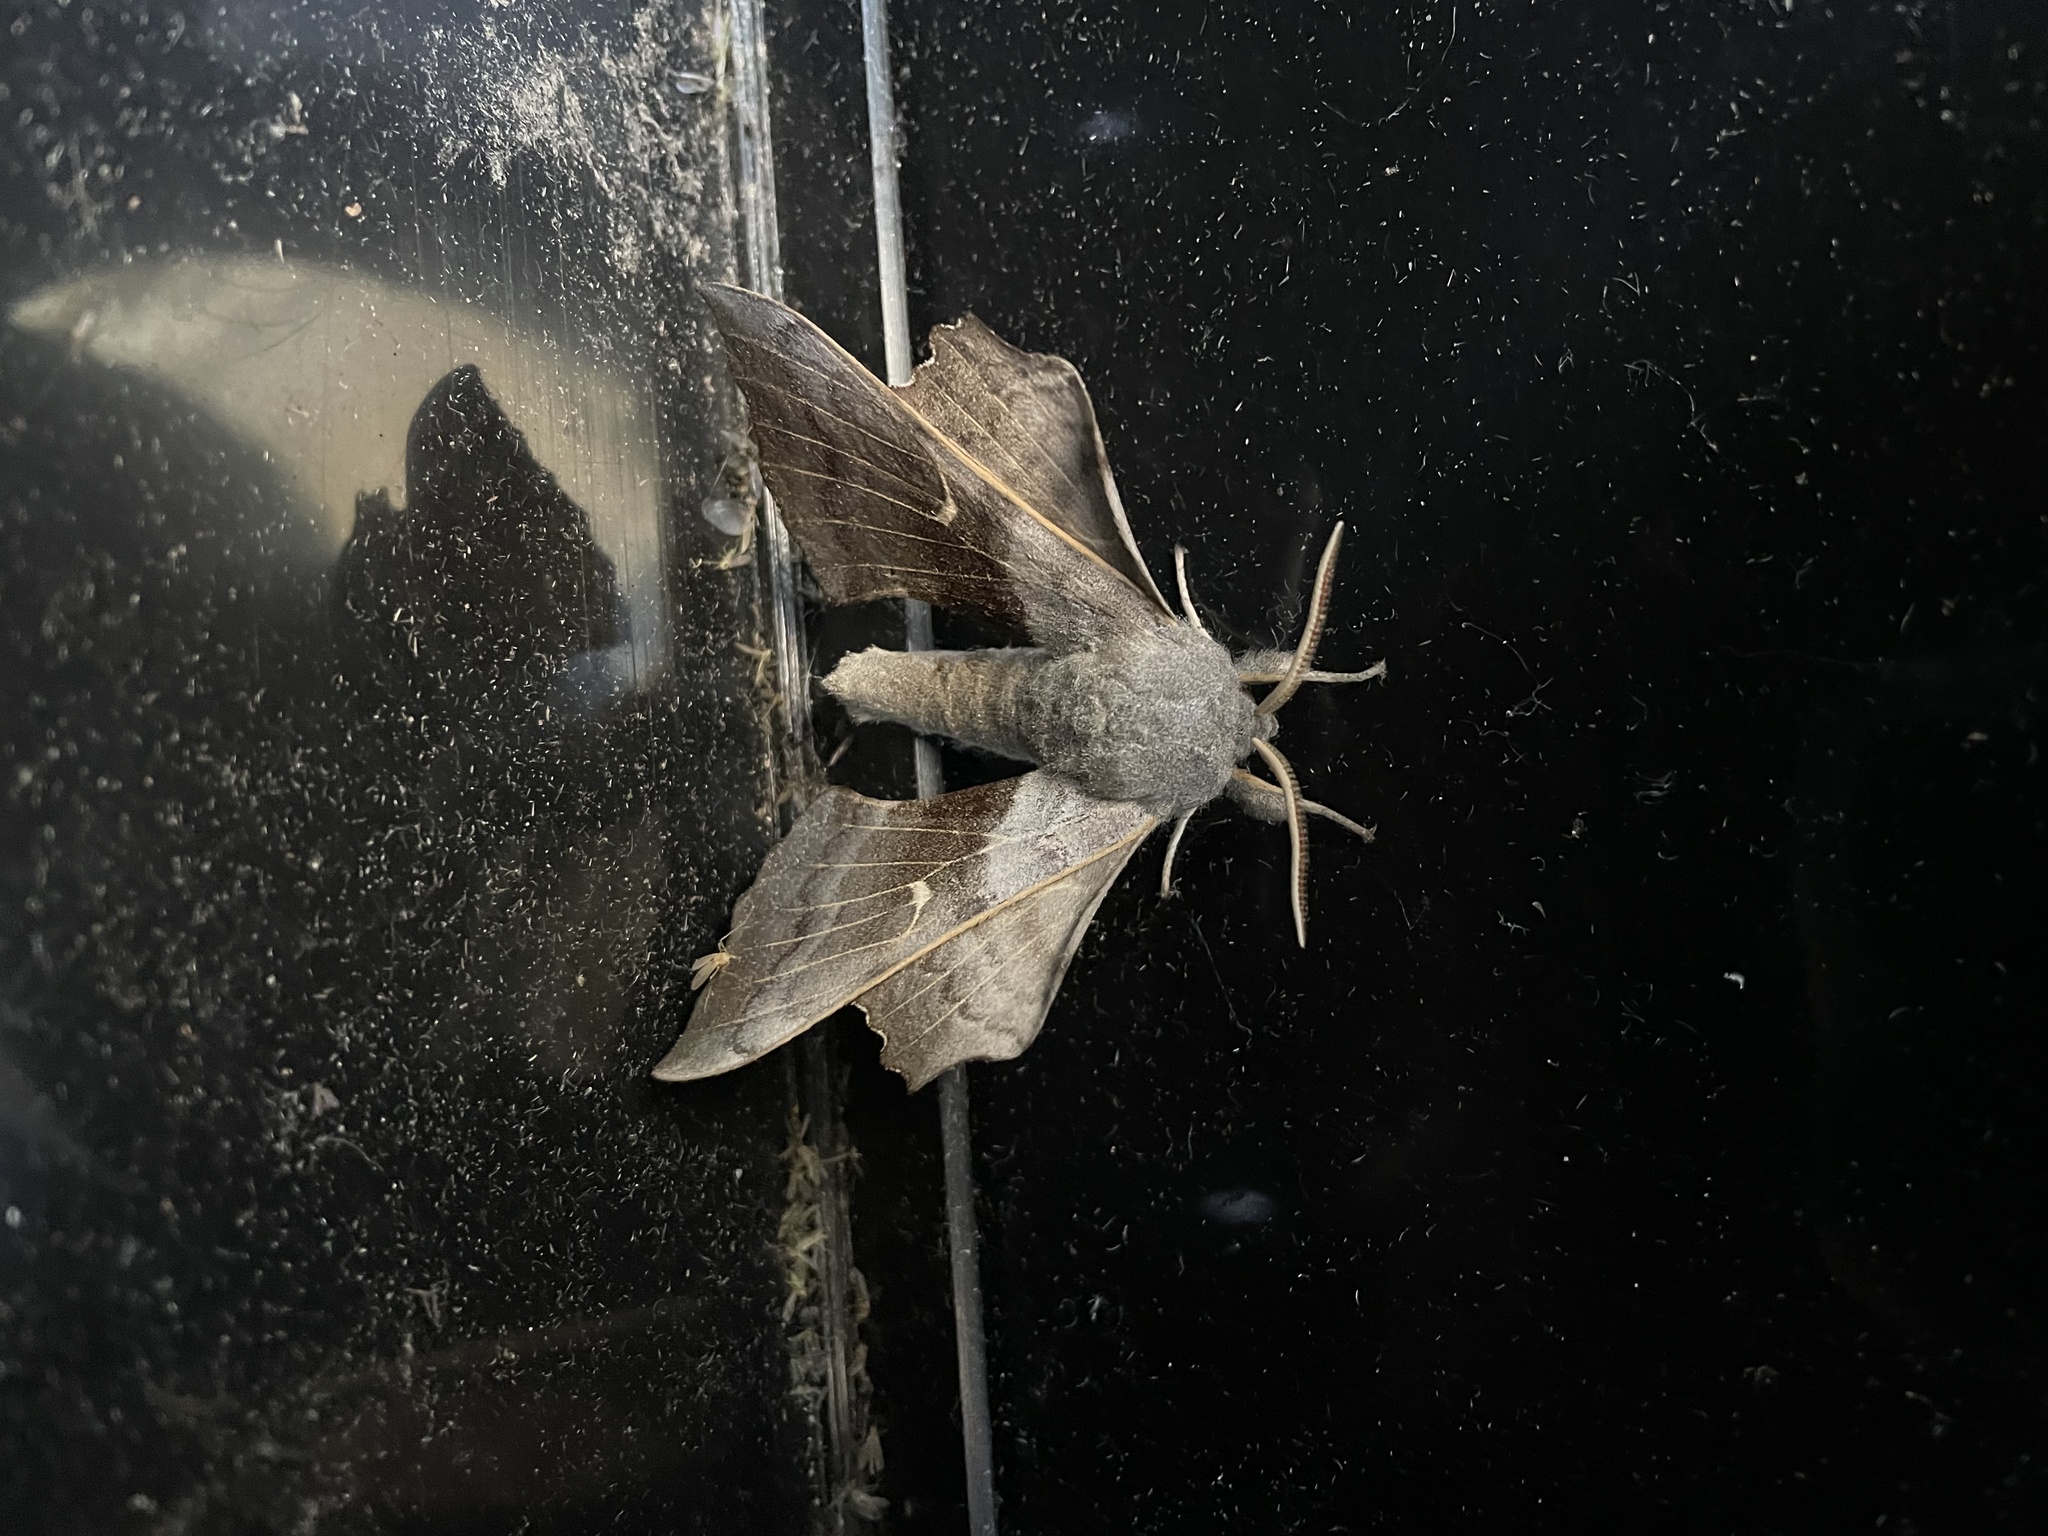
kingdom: Animalia
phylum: Arthropoda
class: Insecta
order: Lepidoptera
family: Sphingidae
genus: Laothoe
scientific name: Laothoe populi
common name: Poplar hawk-moth
